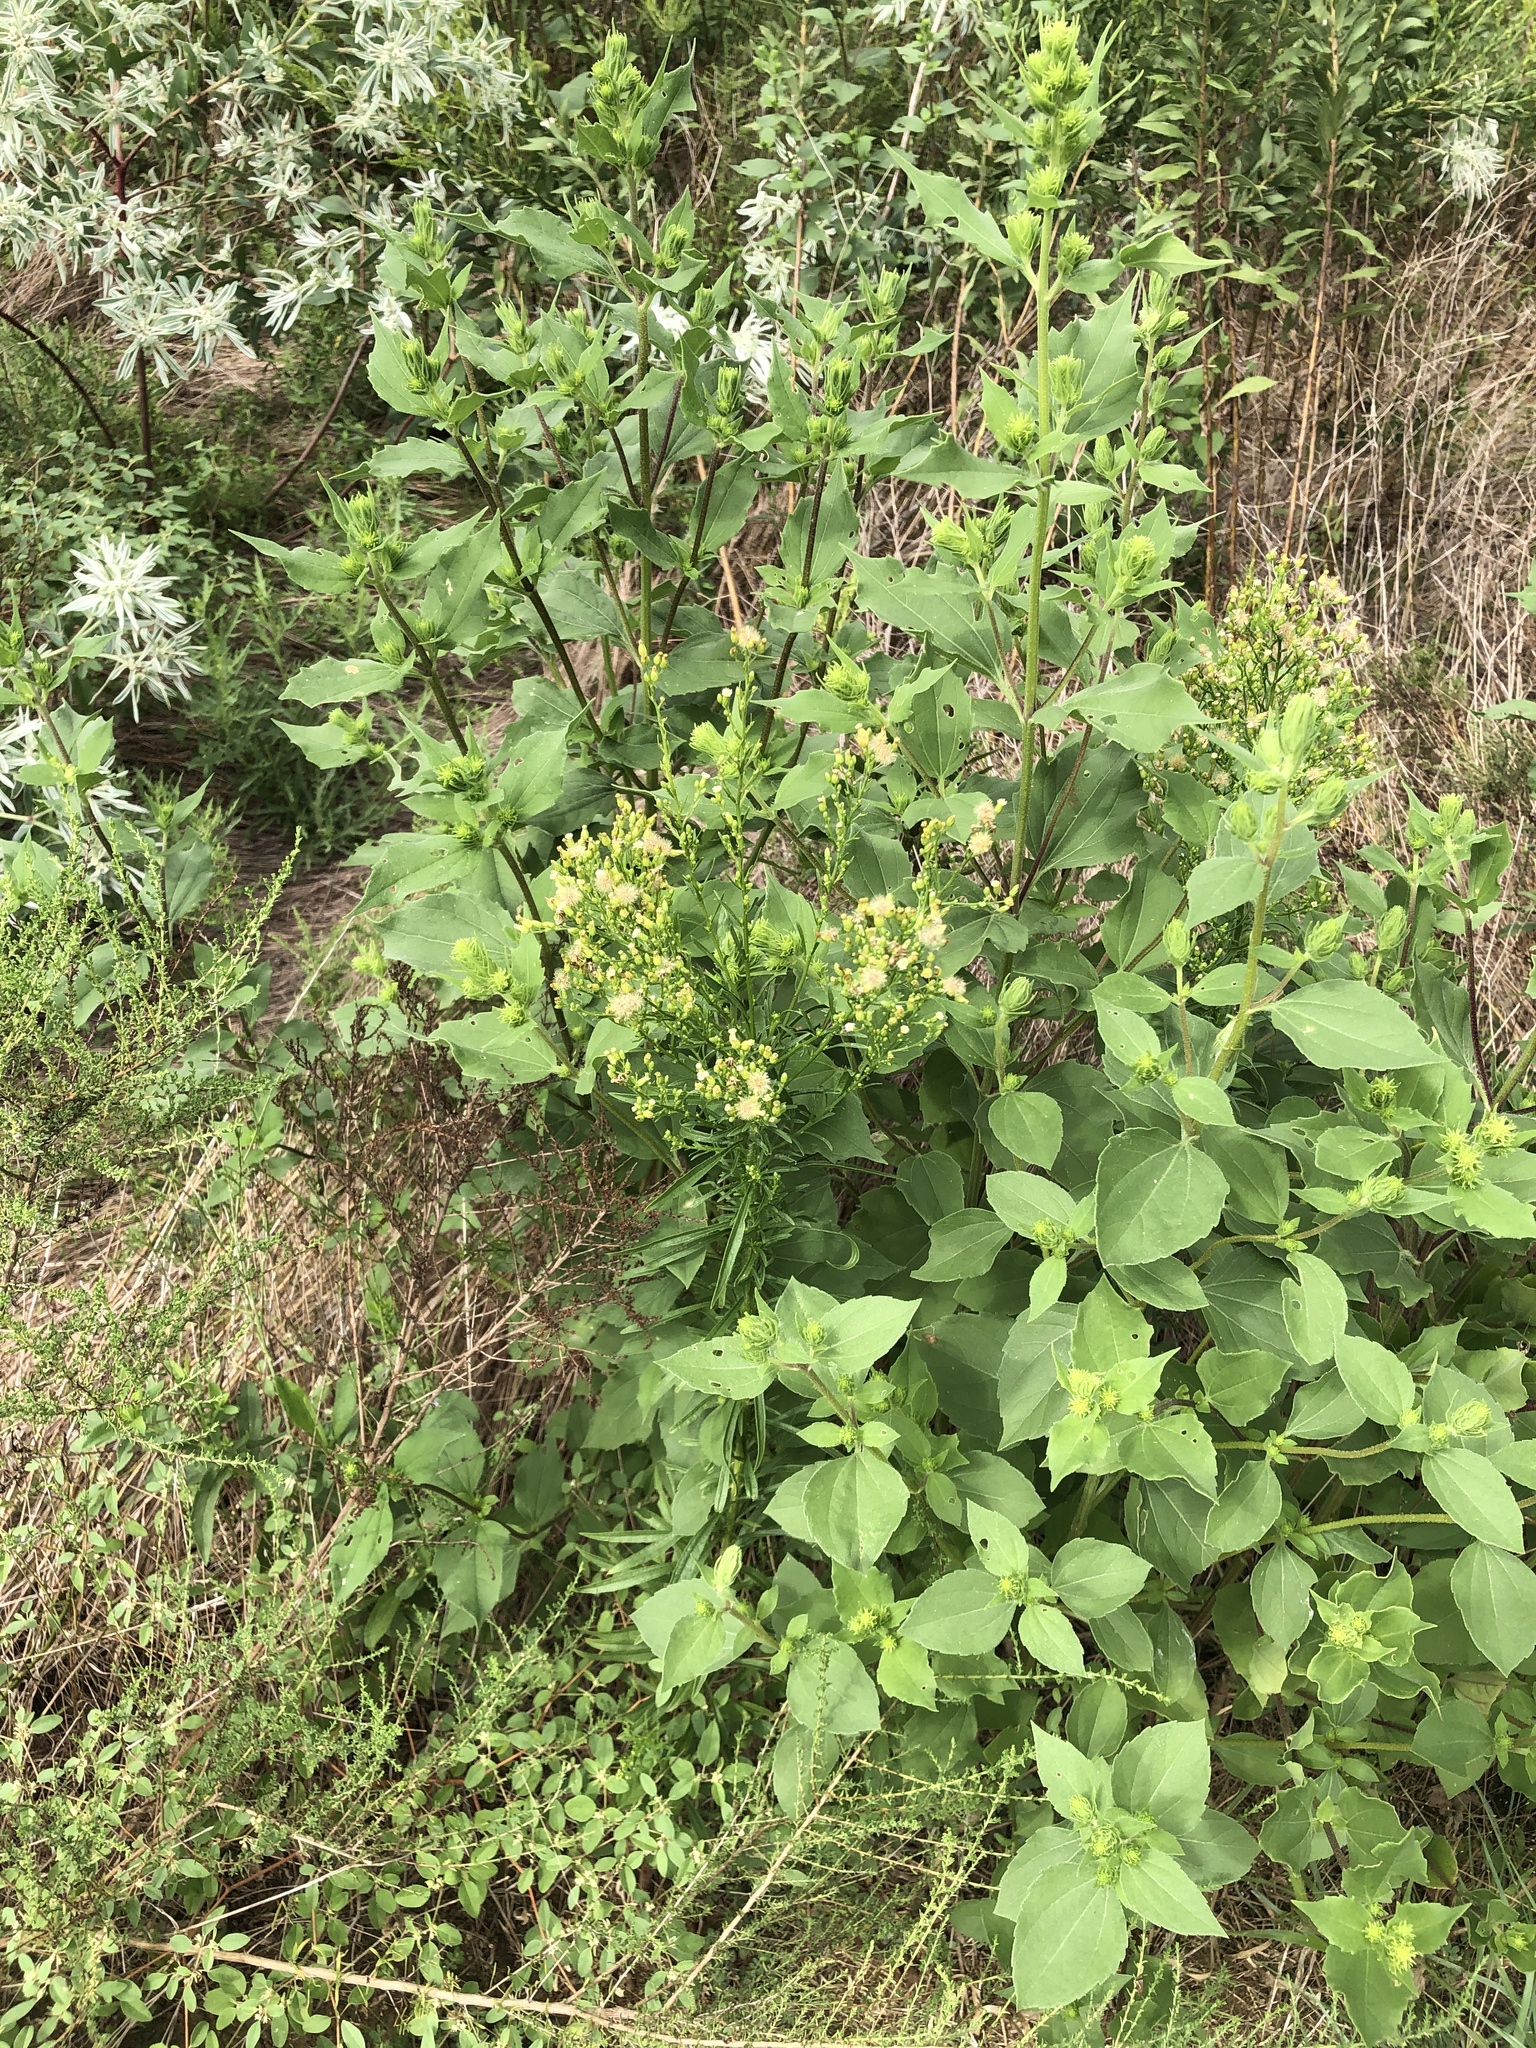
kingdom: Plantae
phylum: Tracheophyta
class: Magnoliopsida
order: Asterales
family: Asteraceae
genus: Erigeron
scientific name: Erigeron canadensis
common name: Canadian fleabane
